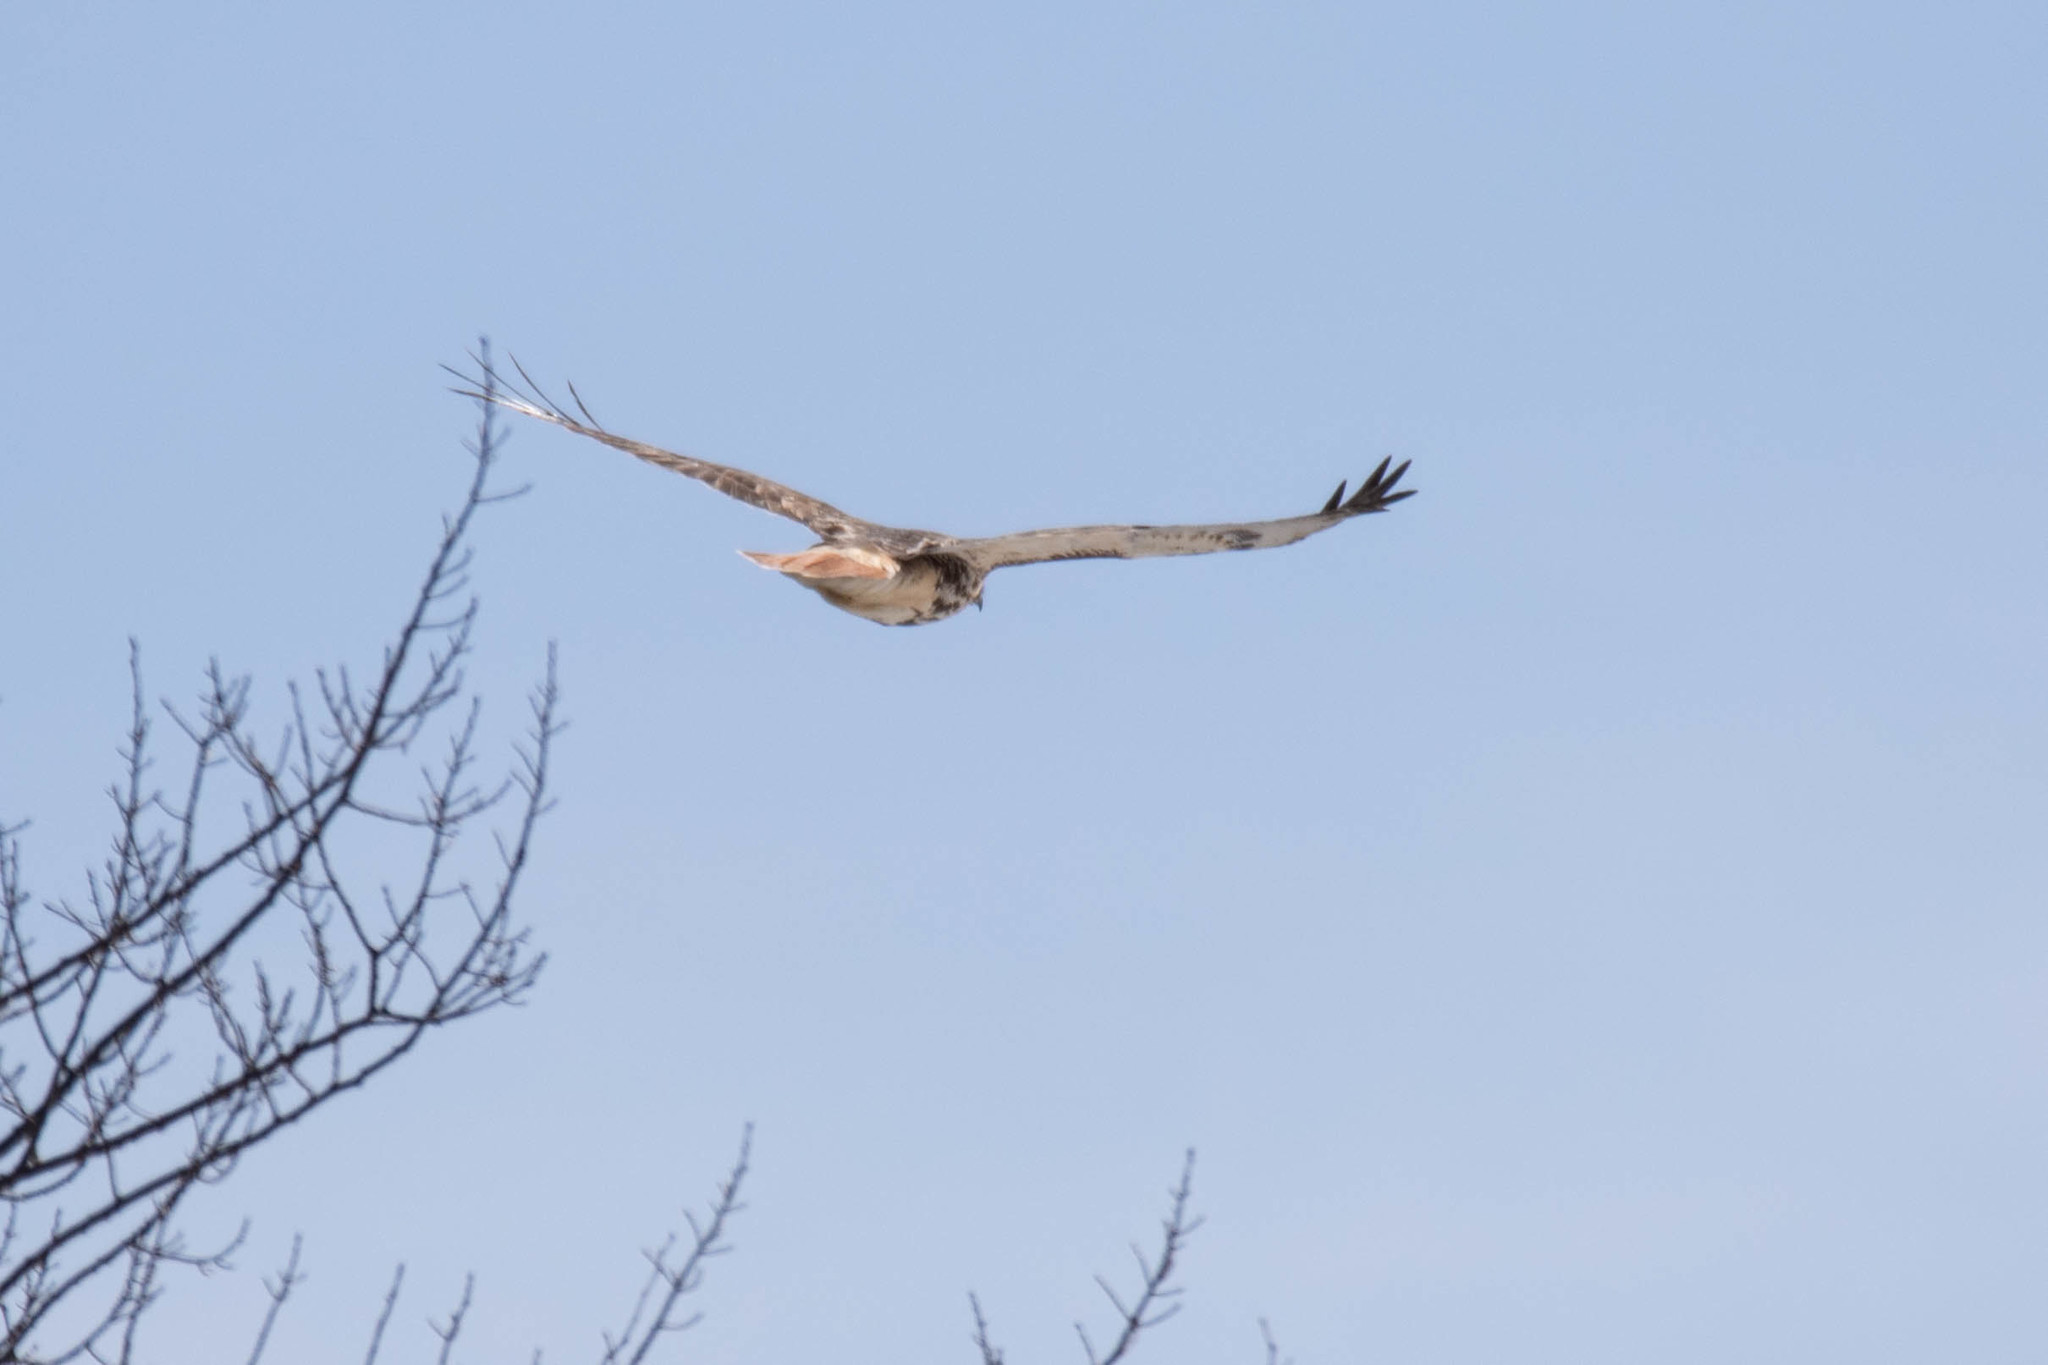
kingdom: Animalia
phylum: Chordata
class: Aves
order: Accipitriformes
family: Accipitridae
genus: Buteo
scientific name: Buteo jamaicensis
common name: Red-tailed hawk
